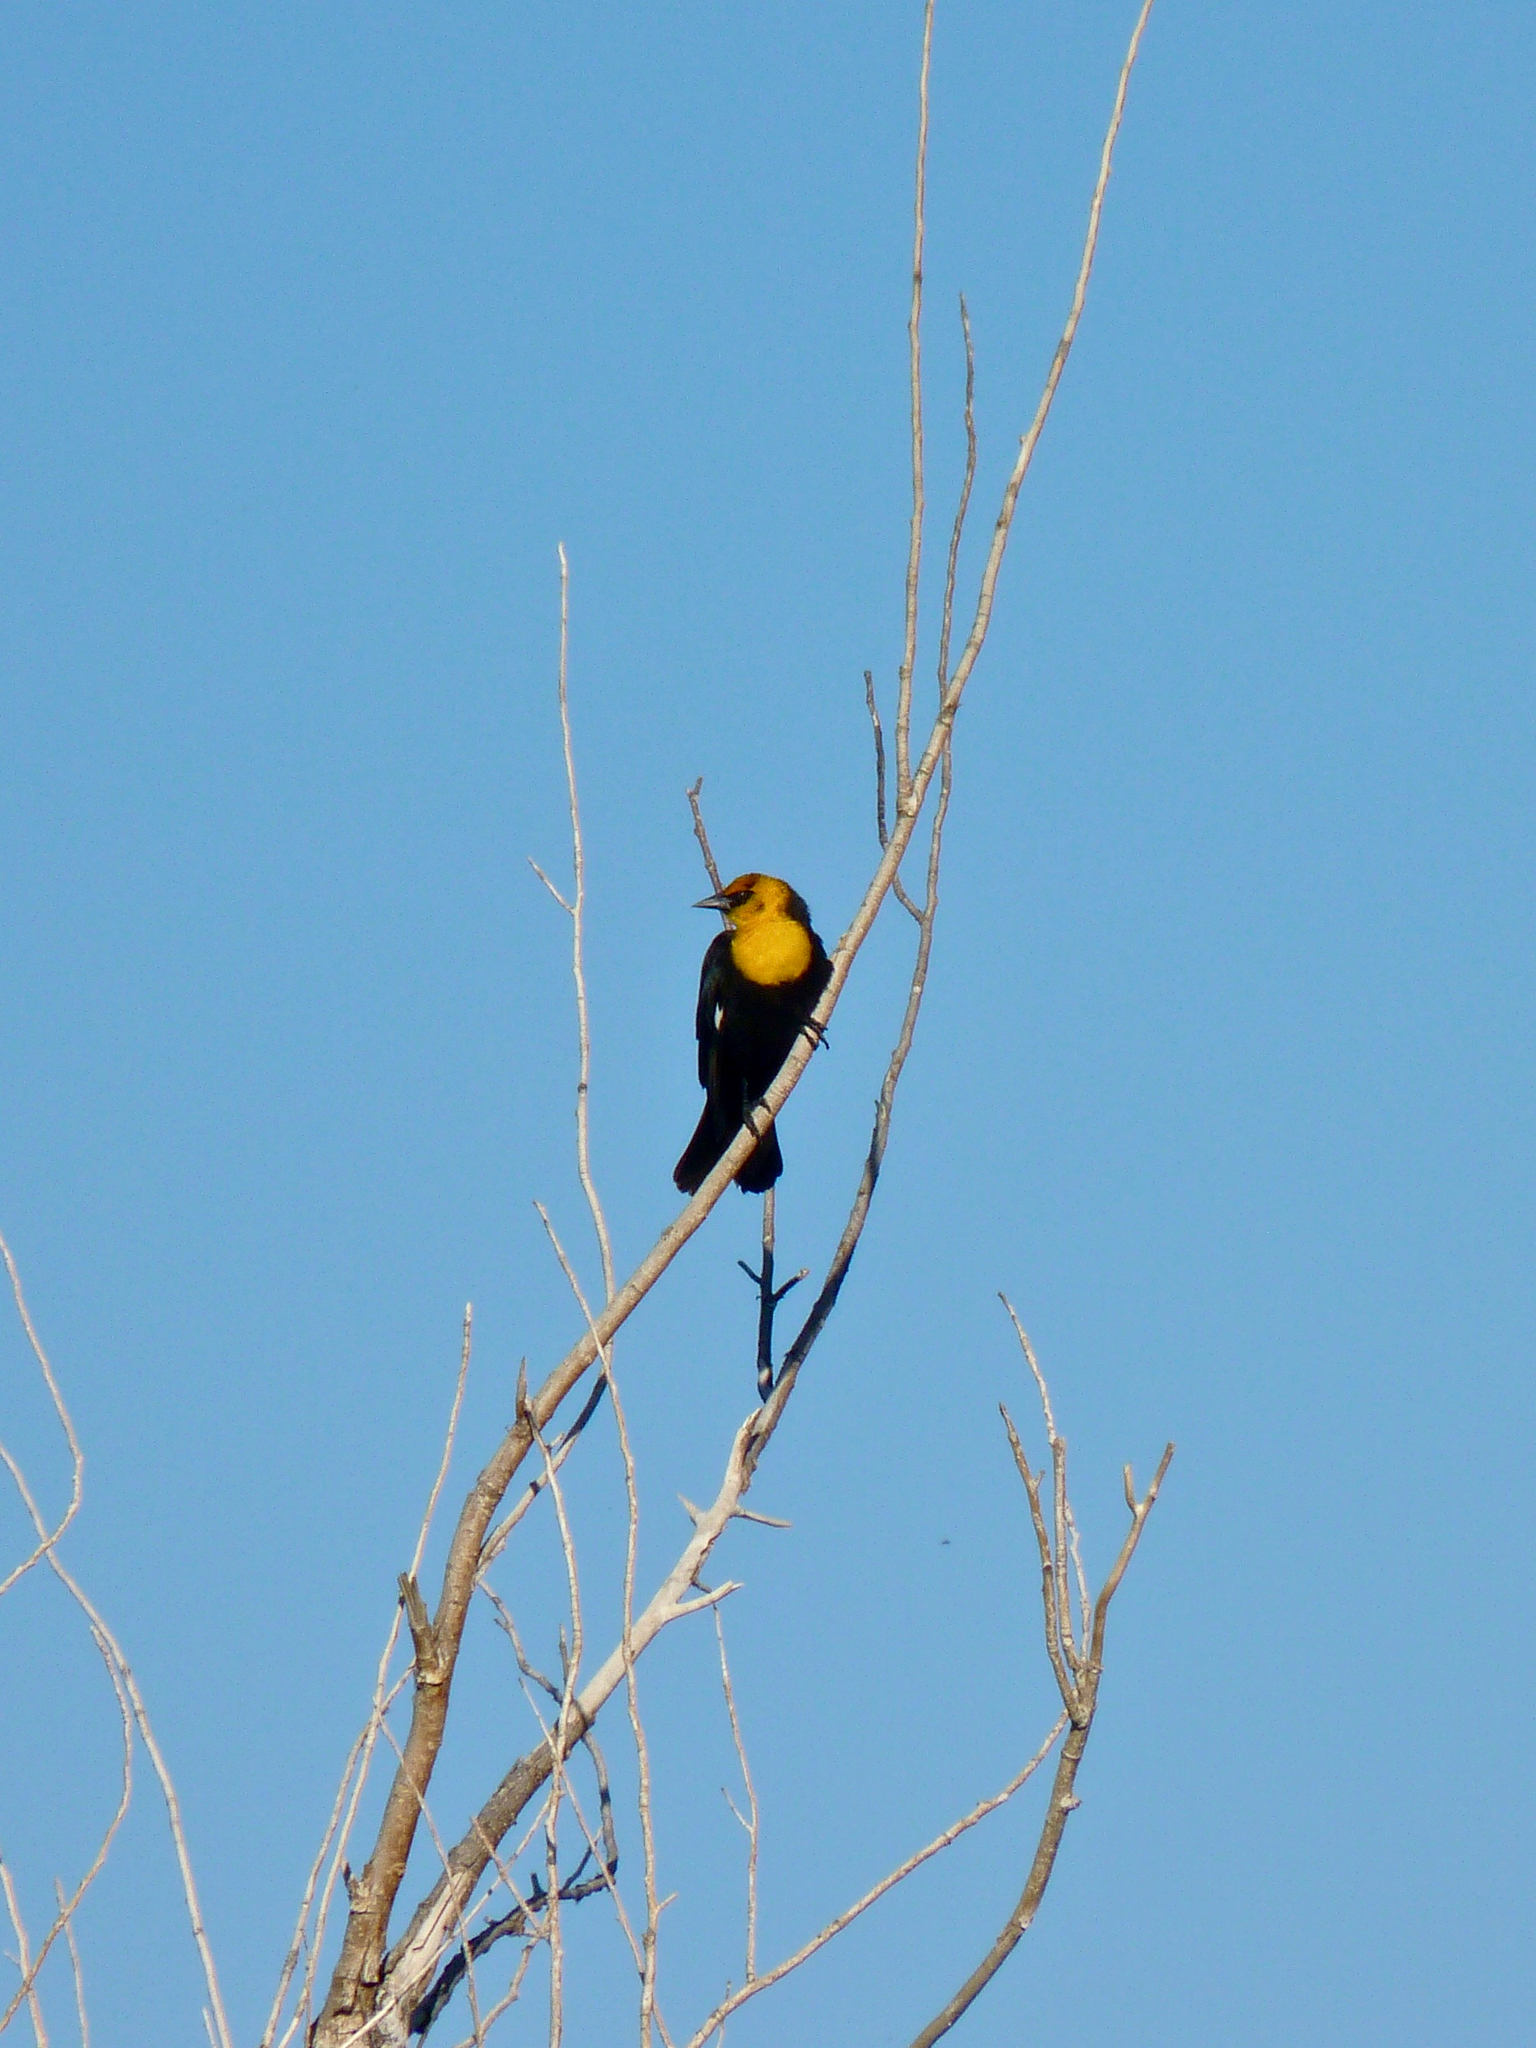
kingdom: Animalia
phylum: Chordata
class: Aves
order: Passeriformes
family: Icteridae
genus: Xanthocephalus
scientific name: Xanthocephalus xanthocephalus
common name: Yellow-headed blackbird
